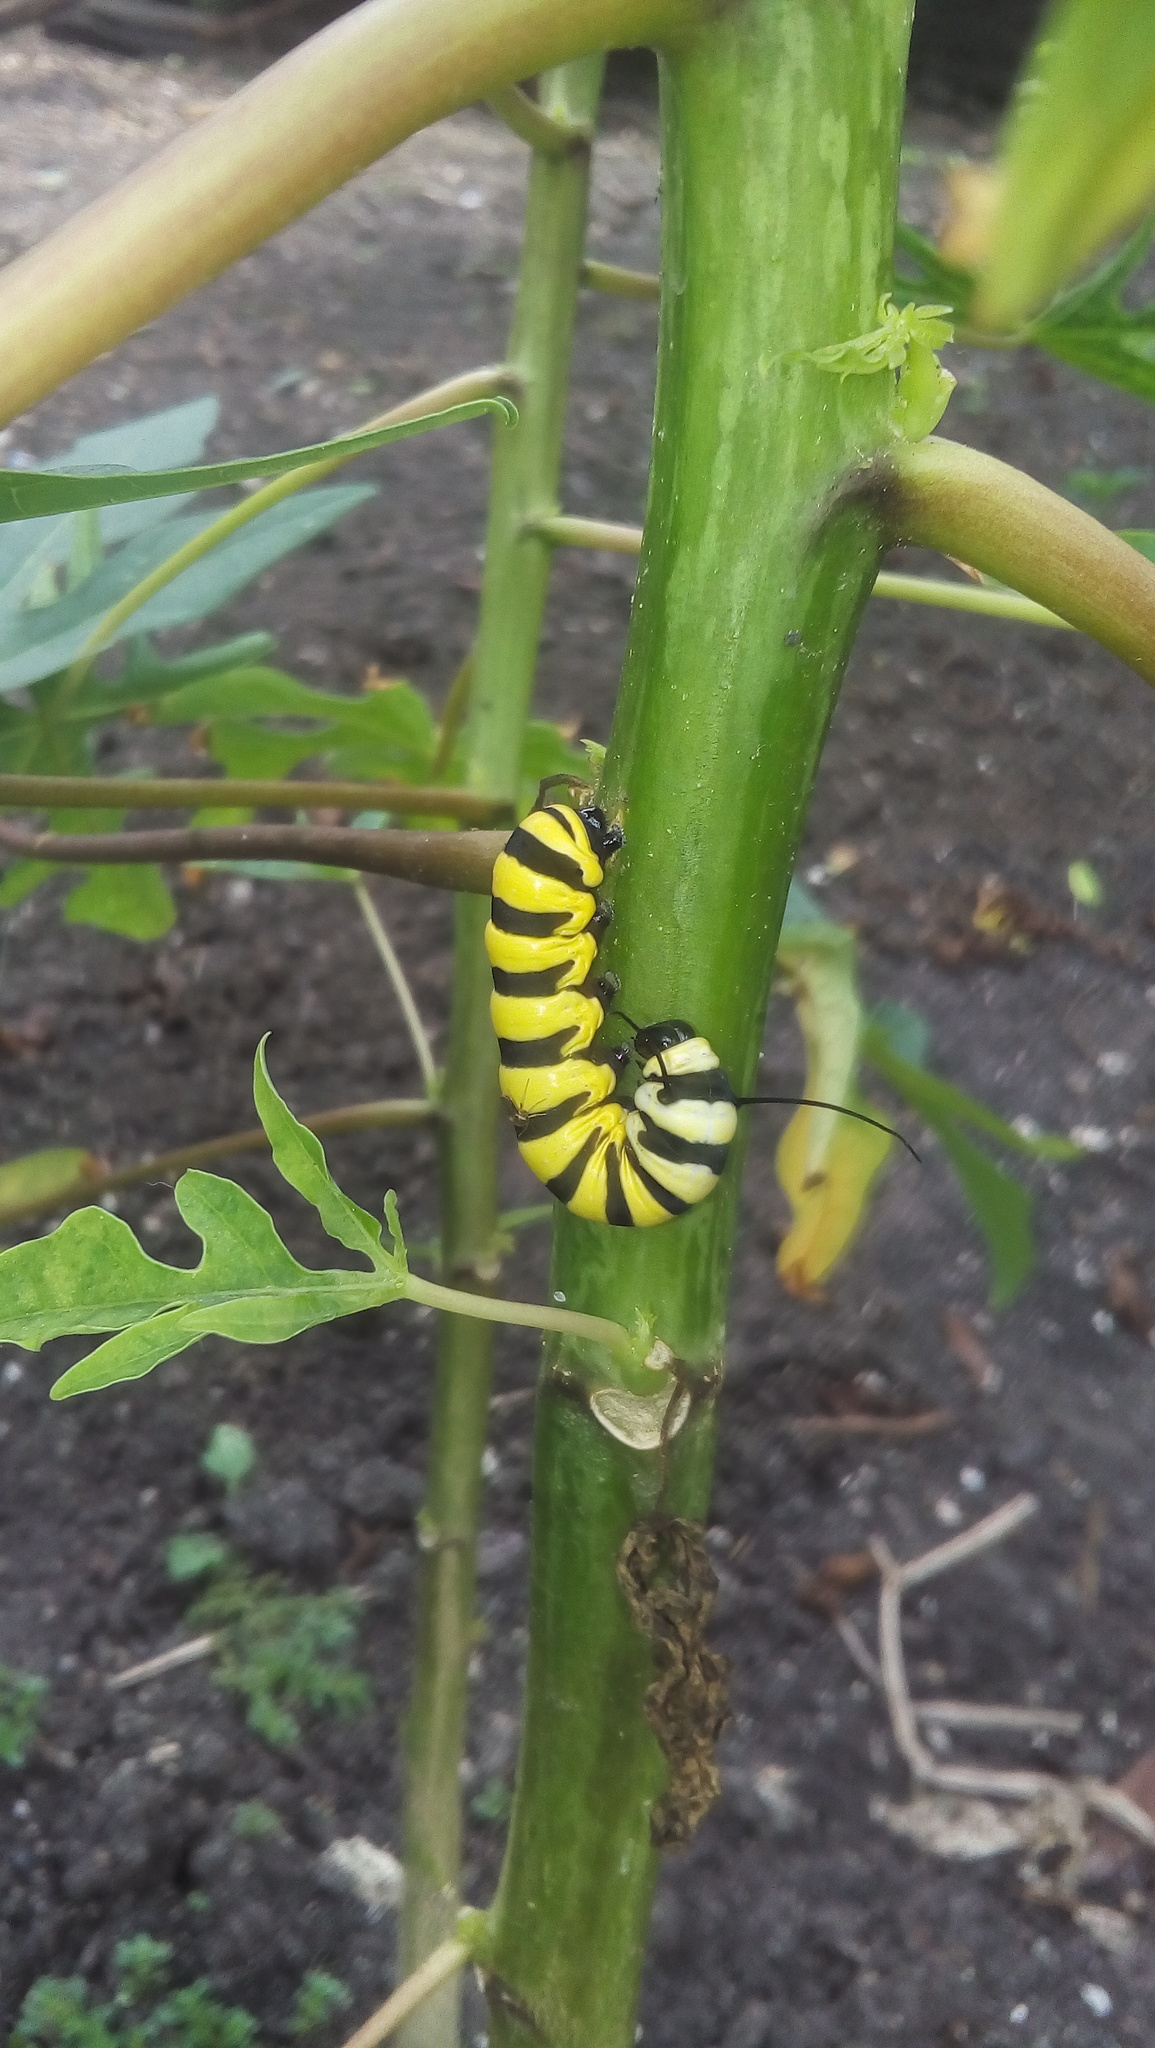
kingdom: Animalia
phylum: Arthropoda
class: Insecta
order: Lepidoptera
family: Nymphalidae
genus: Lycorea
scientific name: Lycorea cleobaea
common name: Tiger mimic-queen
